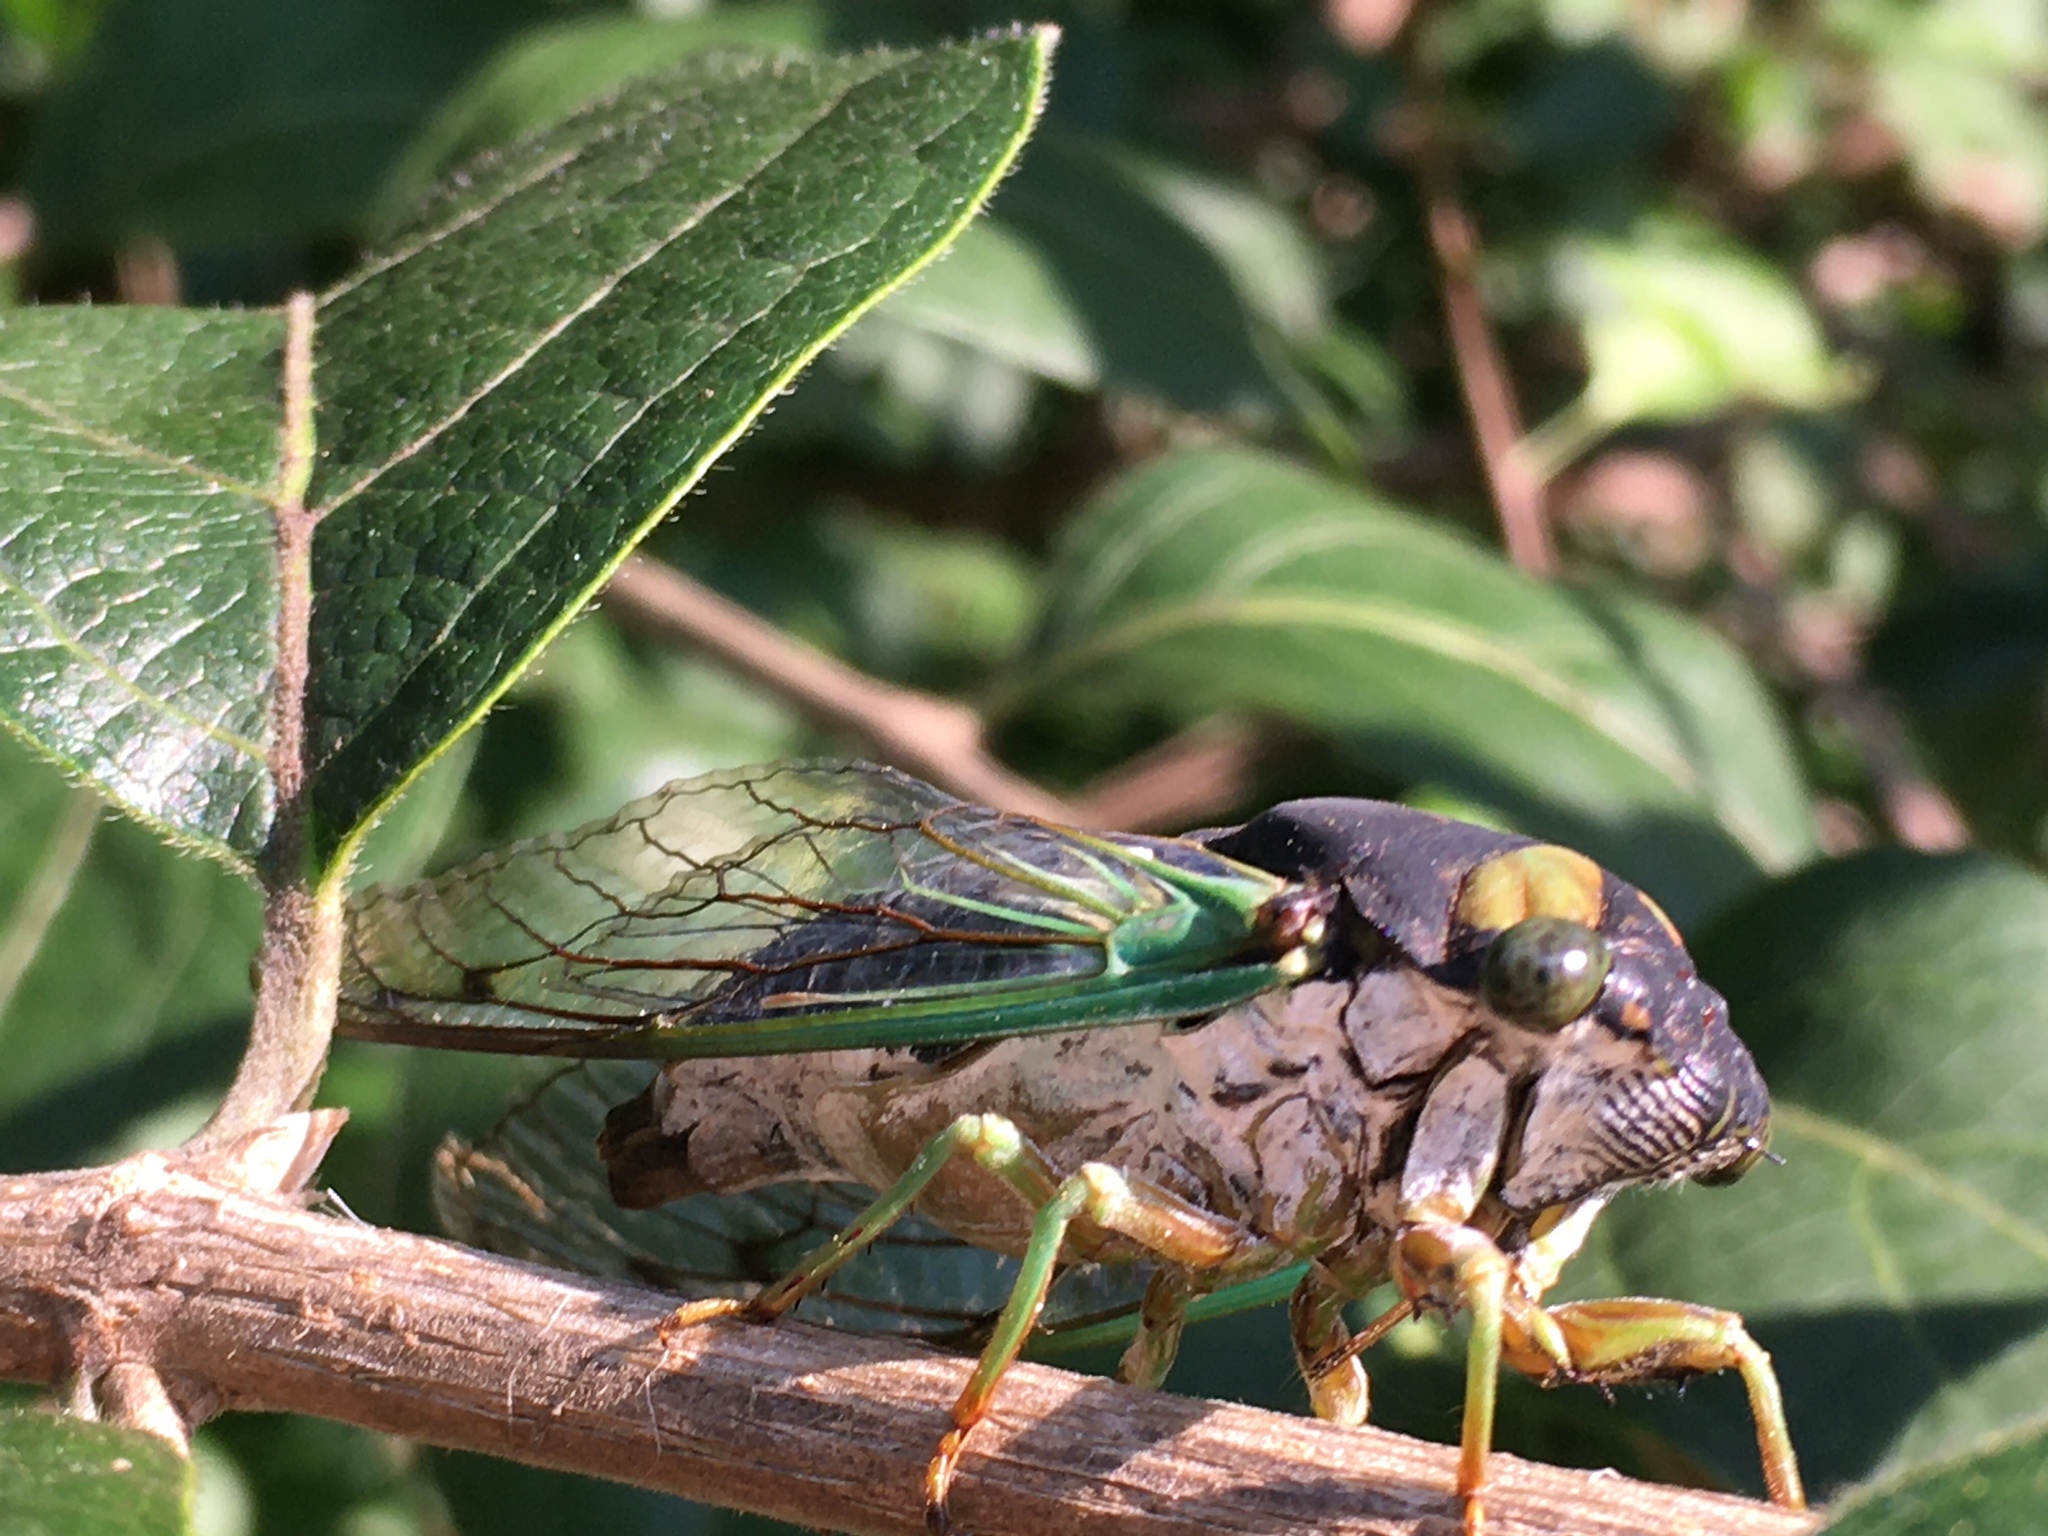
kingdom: Animalia
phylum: Arthropoda
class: Insecta
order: Hemiptera
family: Cicadidae
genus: Neotibicen
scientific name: Neotibicen tibicen
